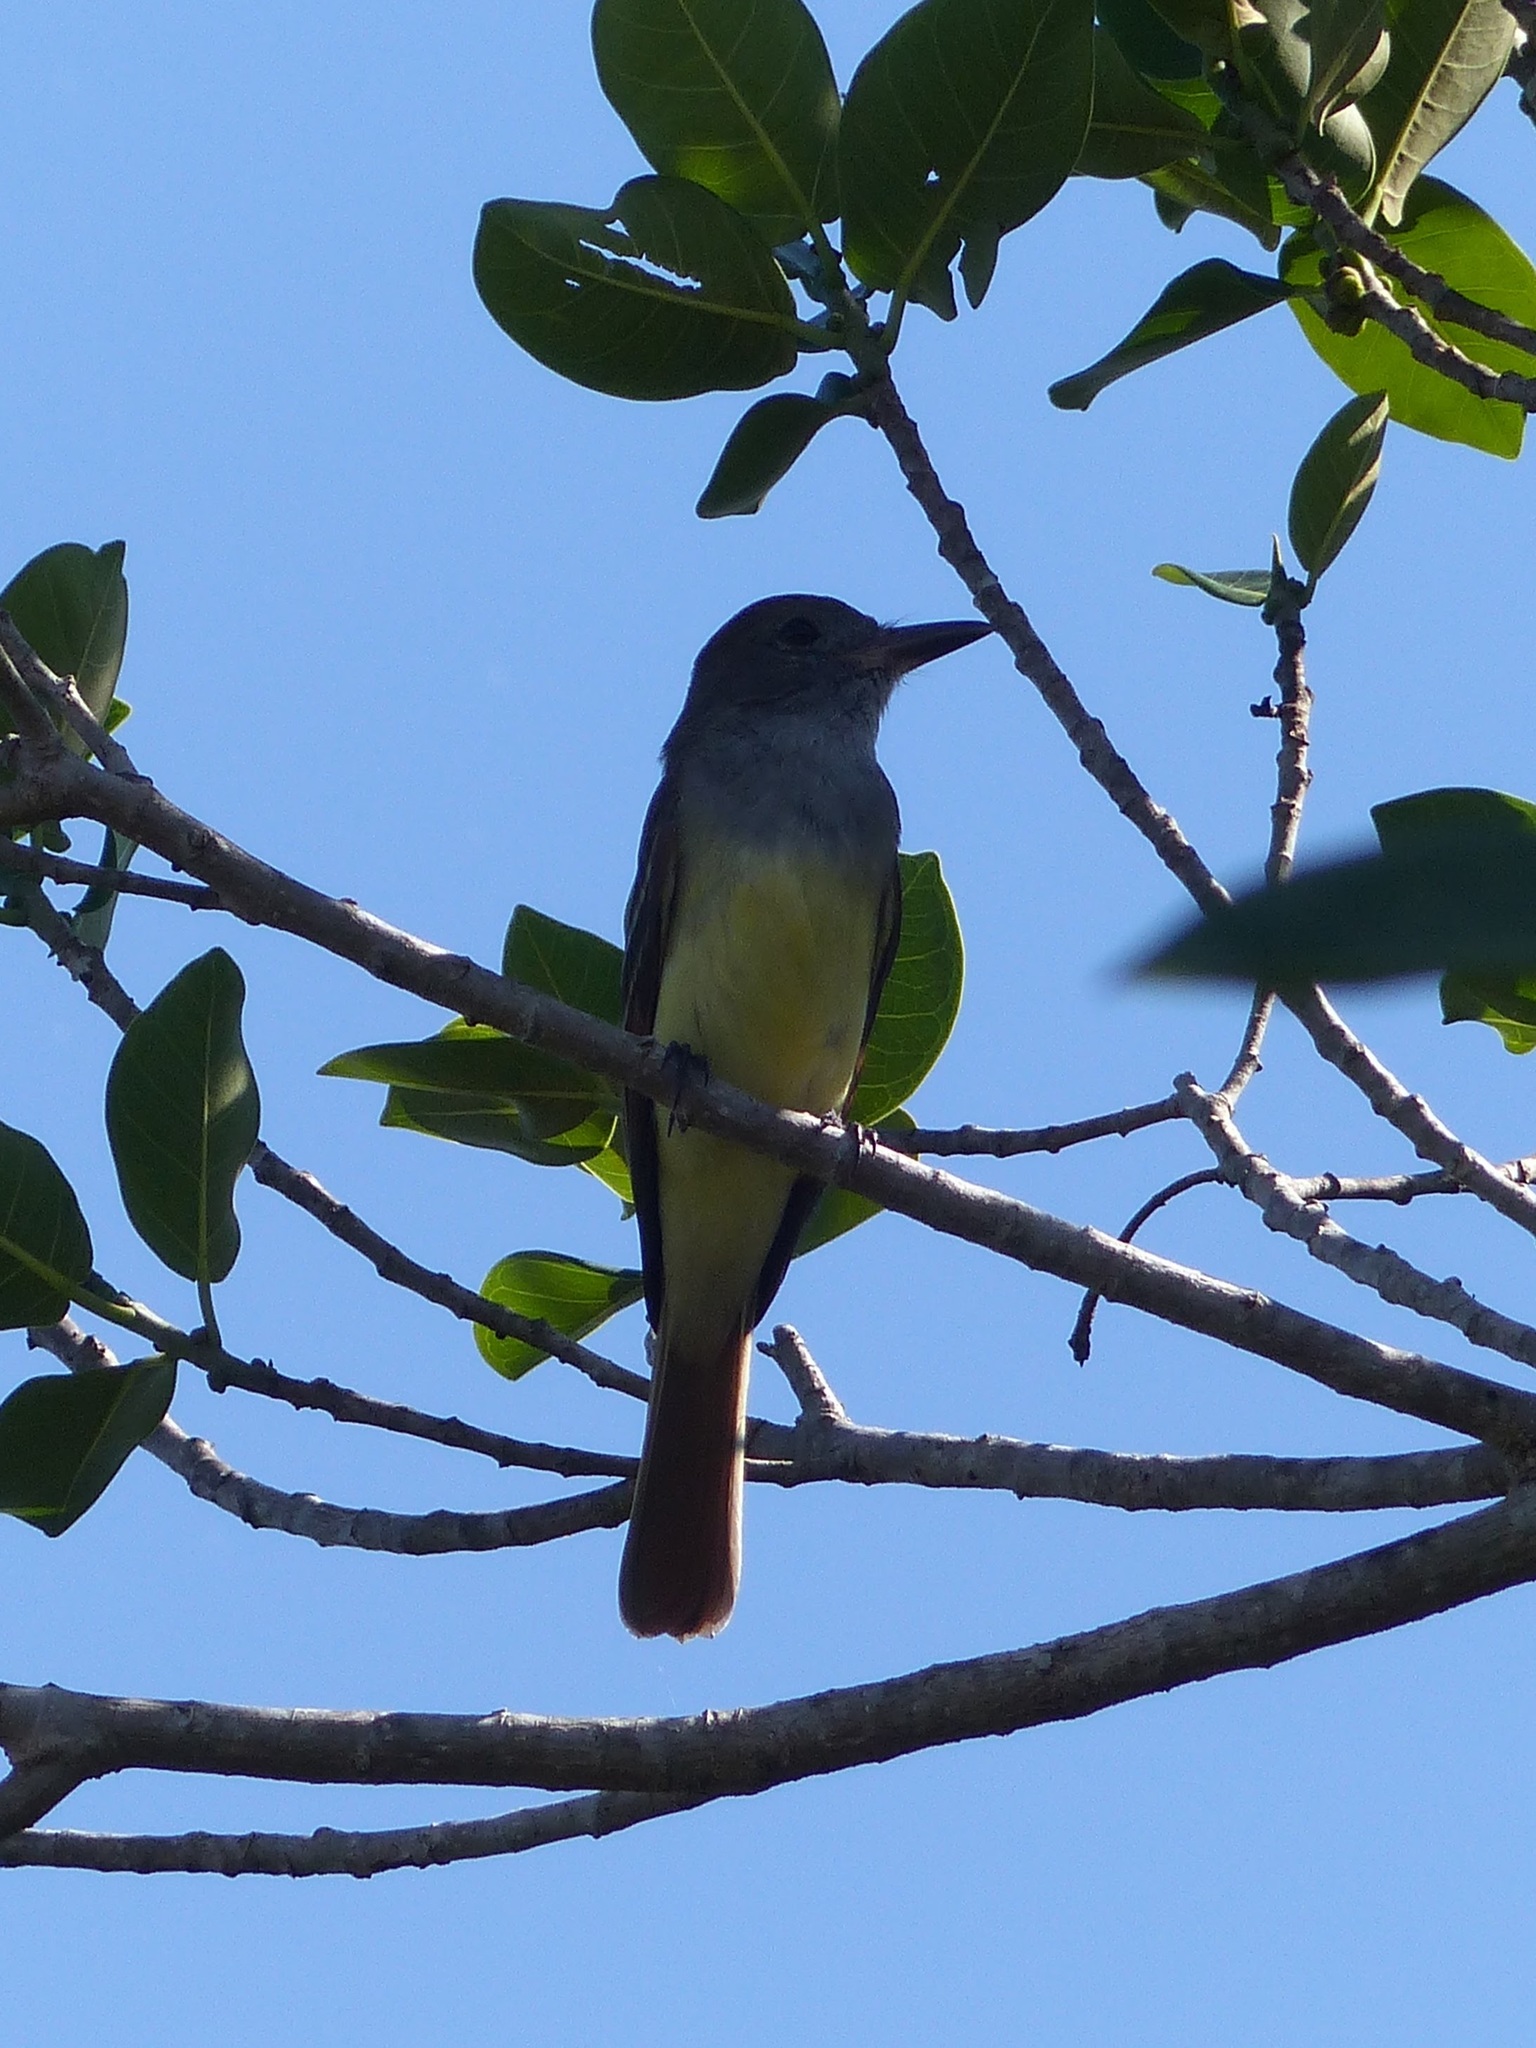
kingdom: Animalia
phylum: Chordata
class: Aves
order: Passeriformes
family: Tyrannidae
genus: Myiarchus
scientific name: Myiarchus crinitus
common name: Great crested flycatcher
